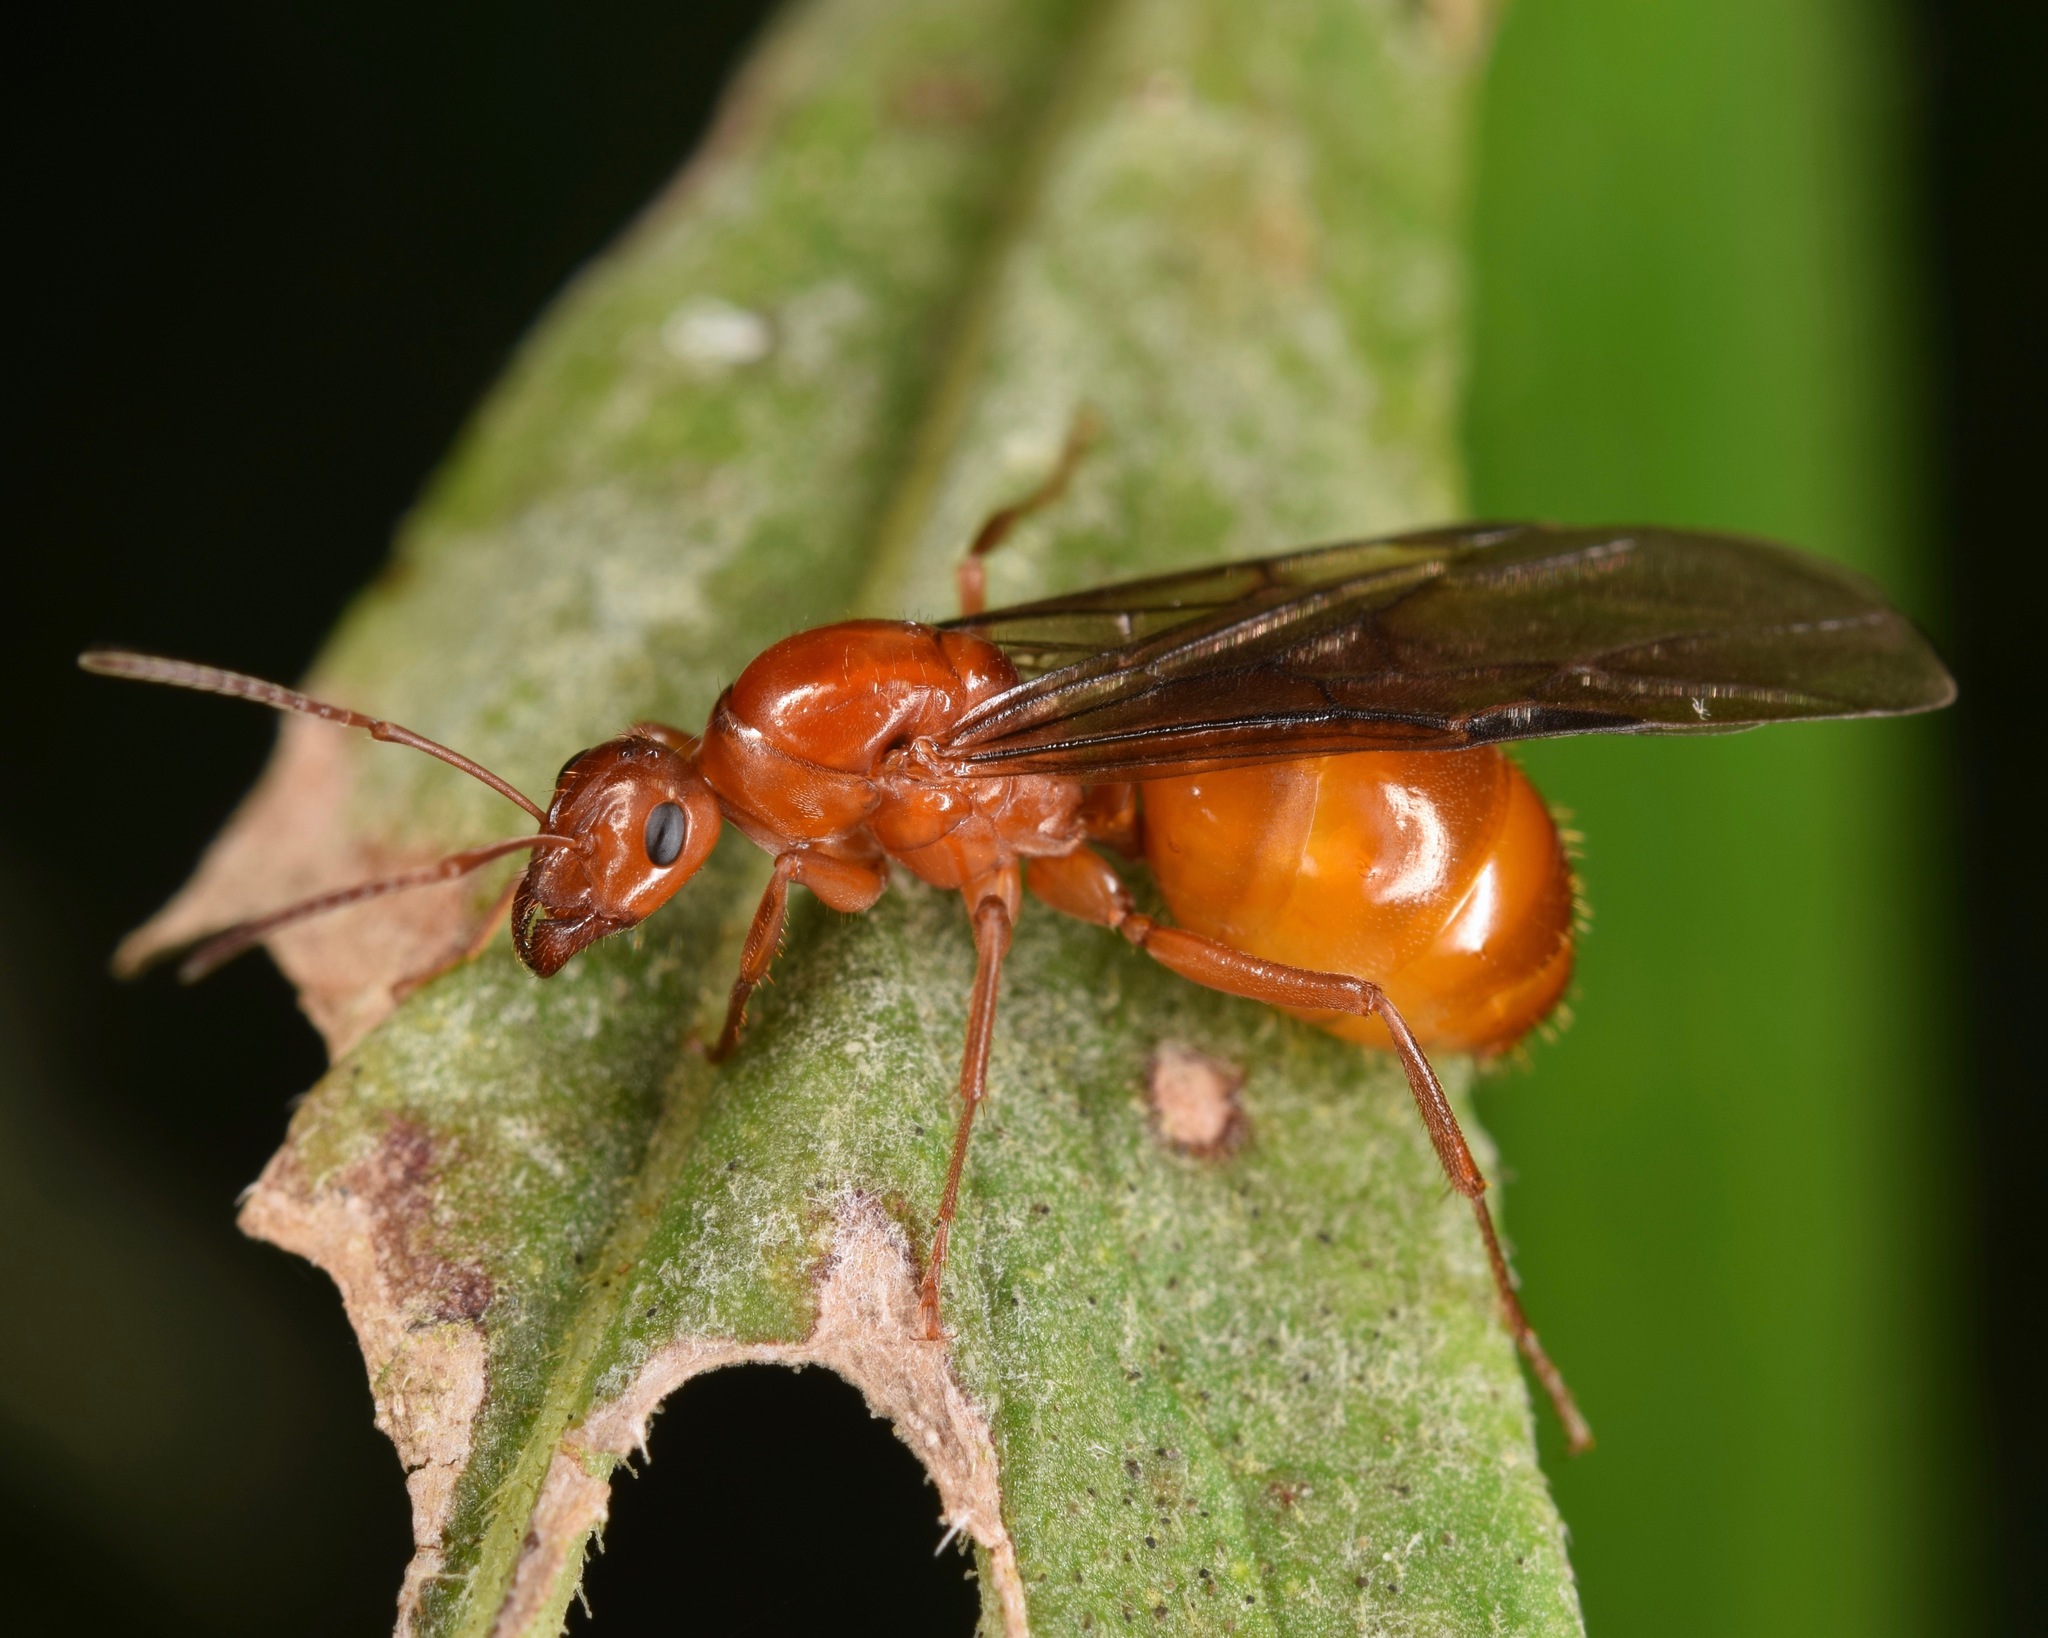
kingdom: Animalia
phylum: Arthropoda
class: Insecta
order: Hymenoptera
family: Formicidae
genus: Formica
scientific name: Formica pallidefulva
